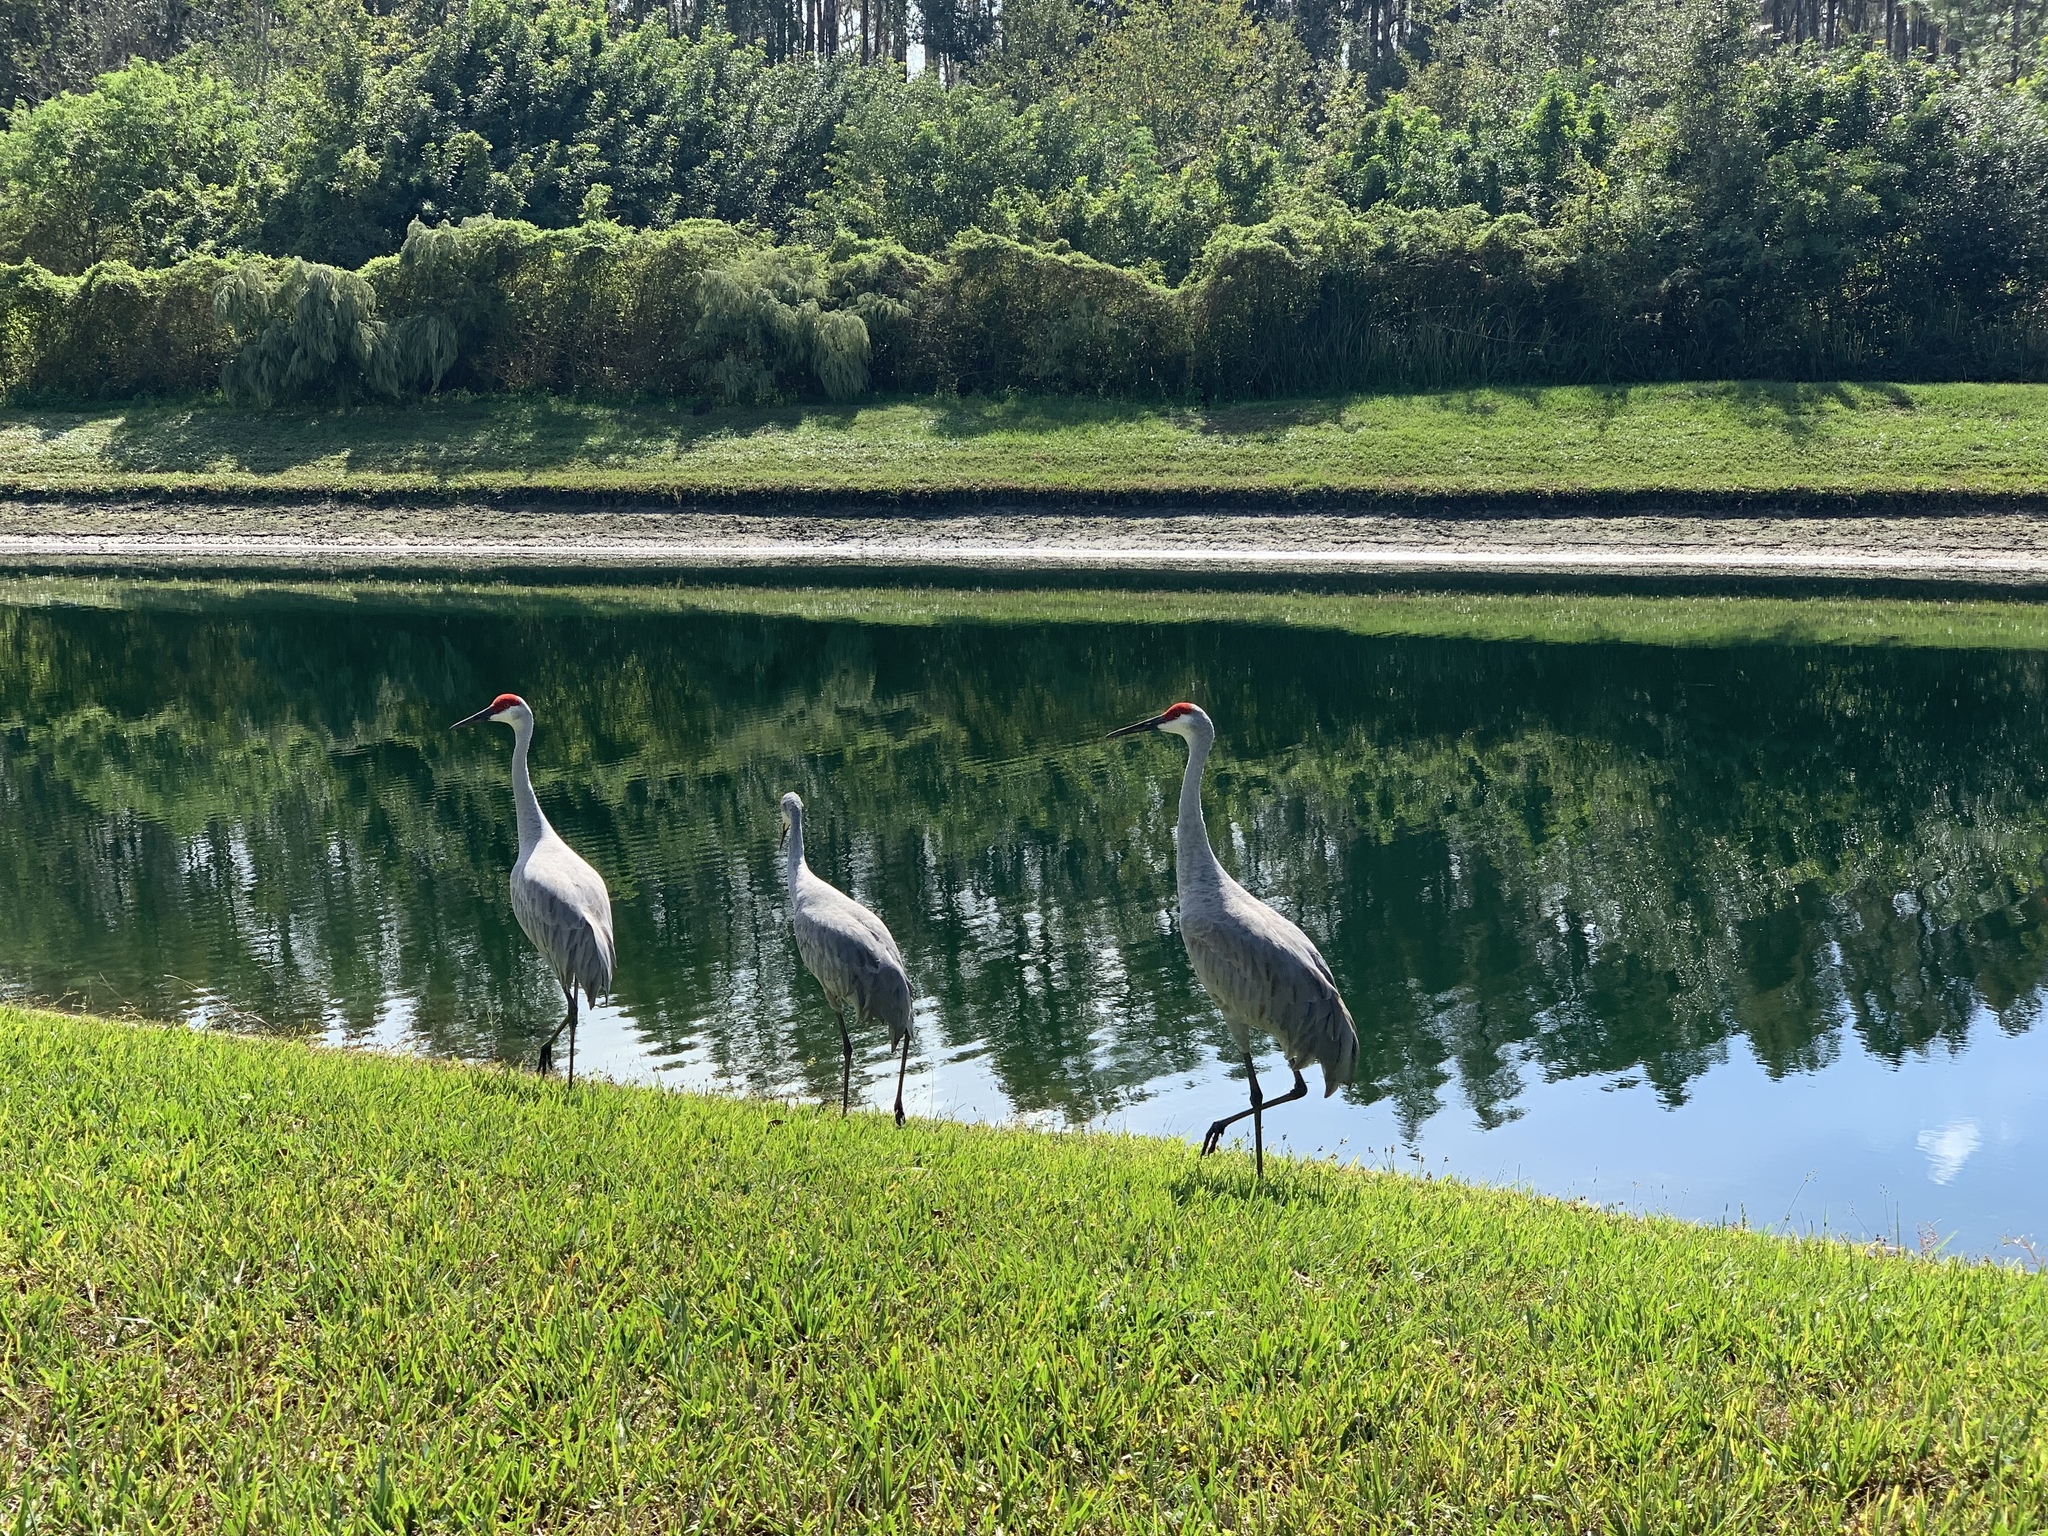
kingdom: Animalia
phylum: Chordata
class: Aves
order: Gruiformes
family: Gruidae
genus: Grus
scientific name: Grus canadensis
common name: Sandhill crane
